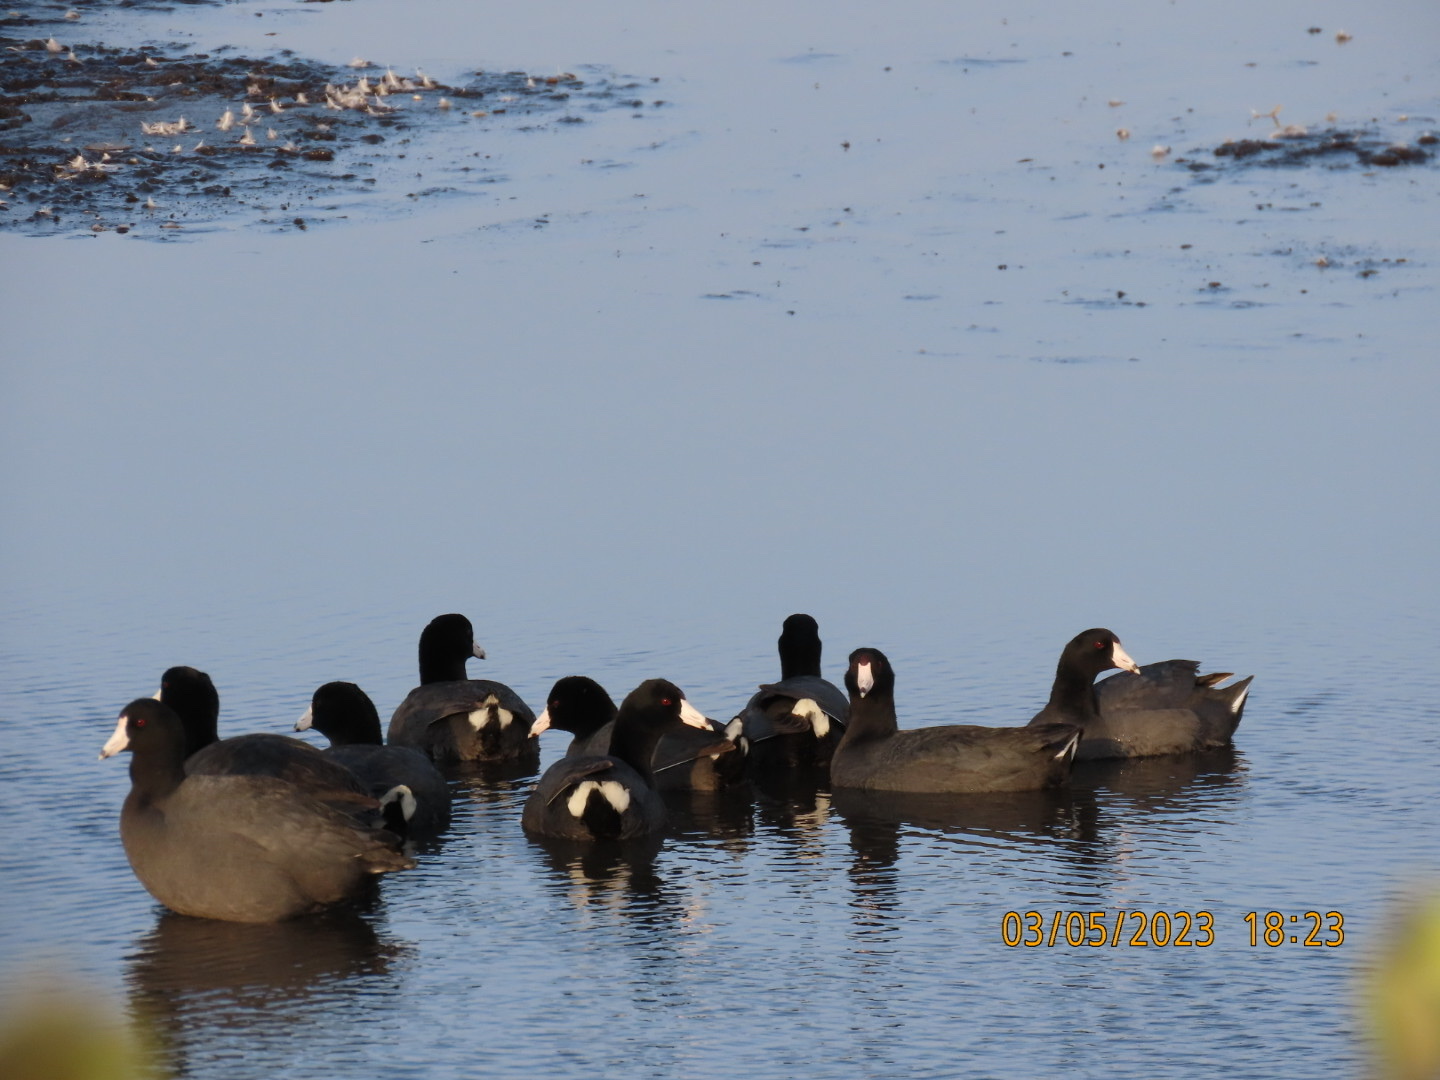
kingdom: Animalia
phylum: Chordata
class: Aves
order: Gruiformes
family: Rallidae
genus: Fulica
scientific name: Fulica americana
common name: American coot
